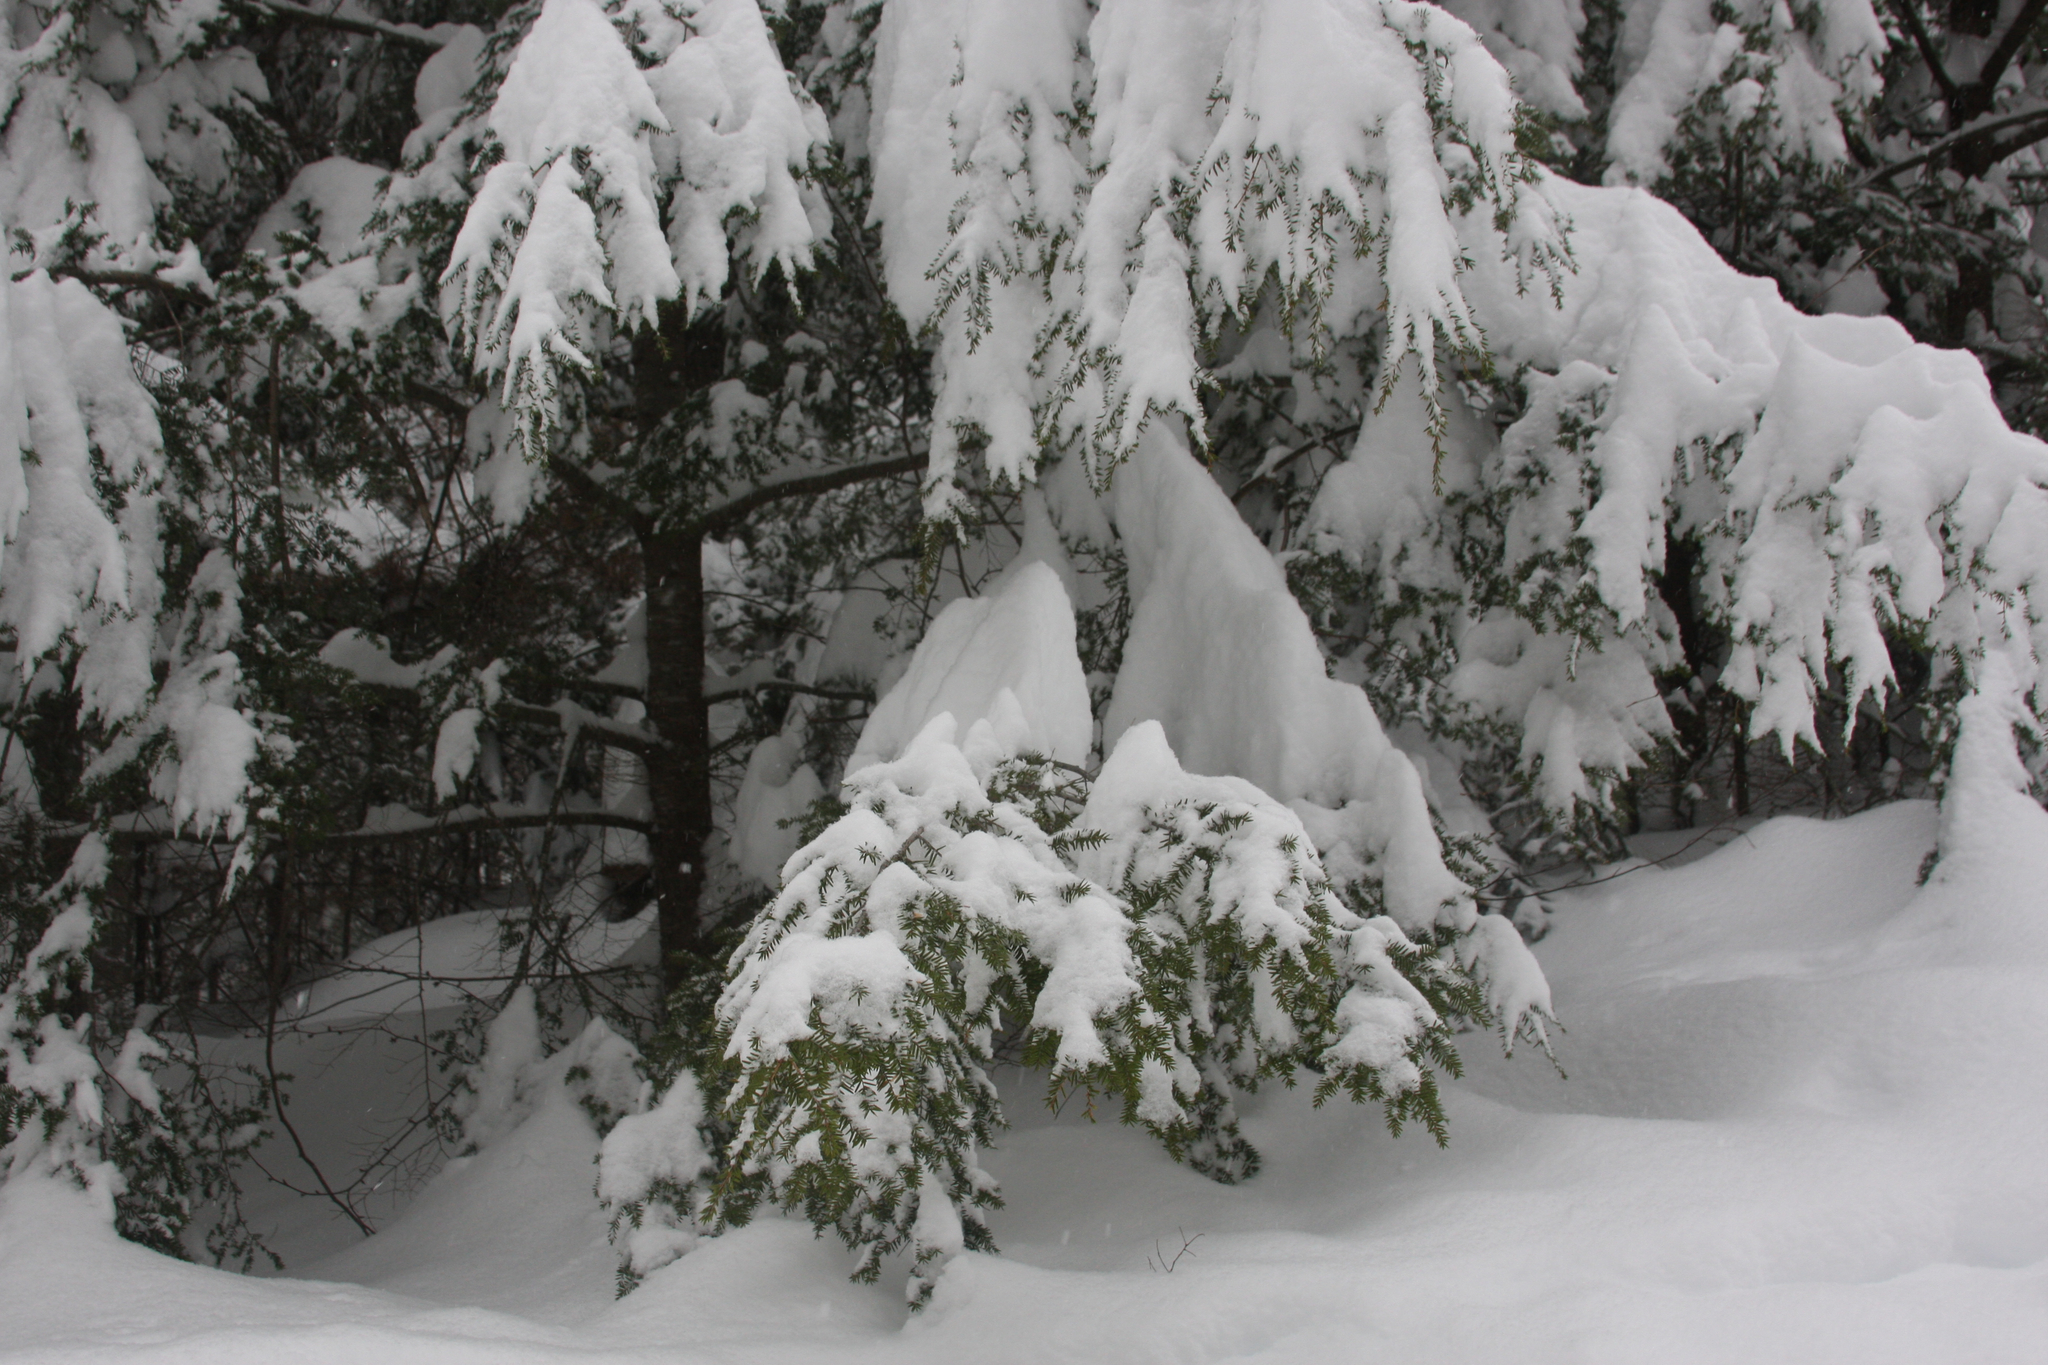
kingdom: Plantae
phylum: Tracheophyta
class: Pinopsida
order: Pinales
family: Pinaceae
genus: Tsuga
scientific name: Tsuga canadensis
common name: Eastern hemlock
